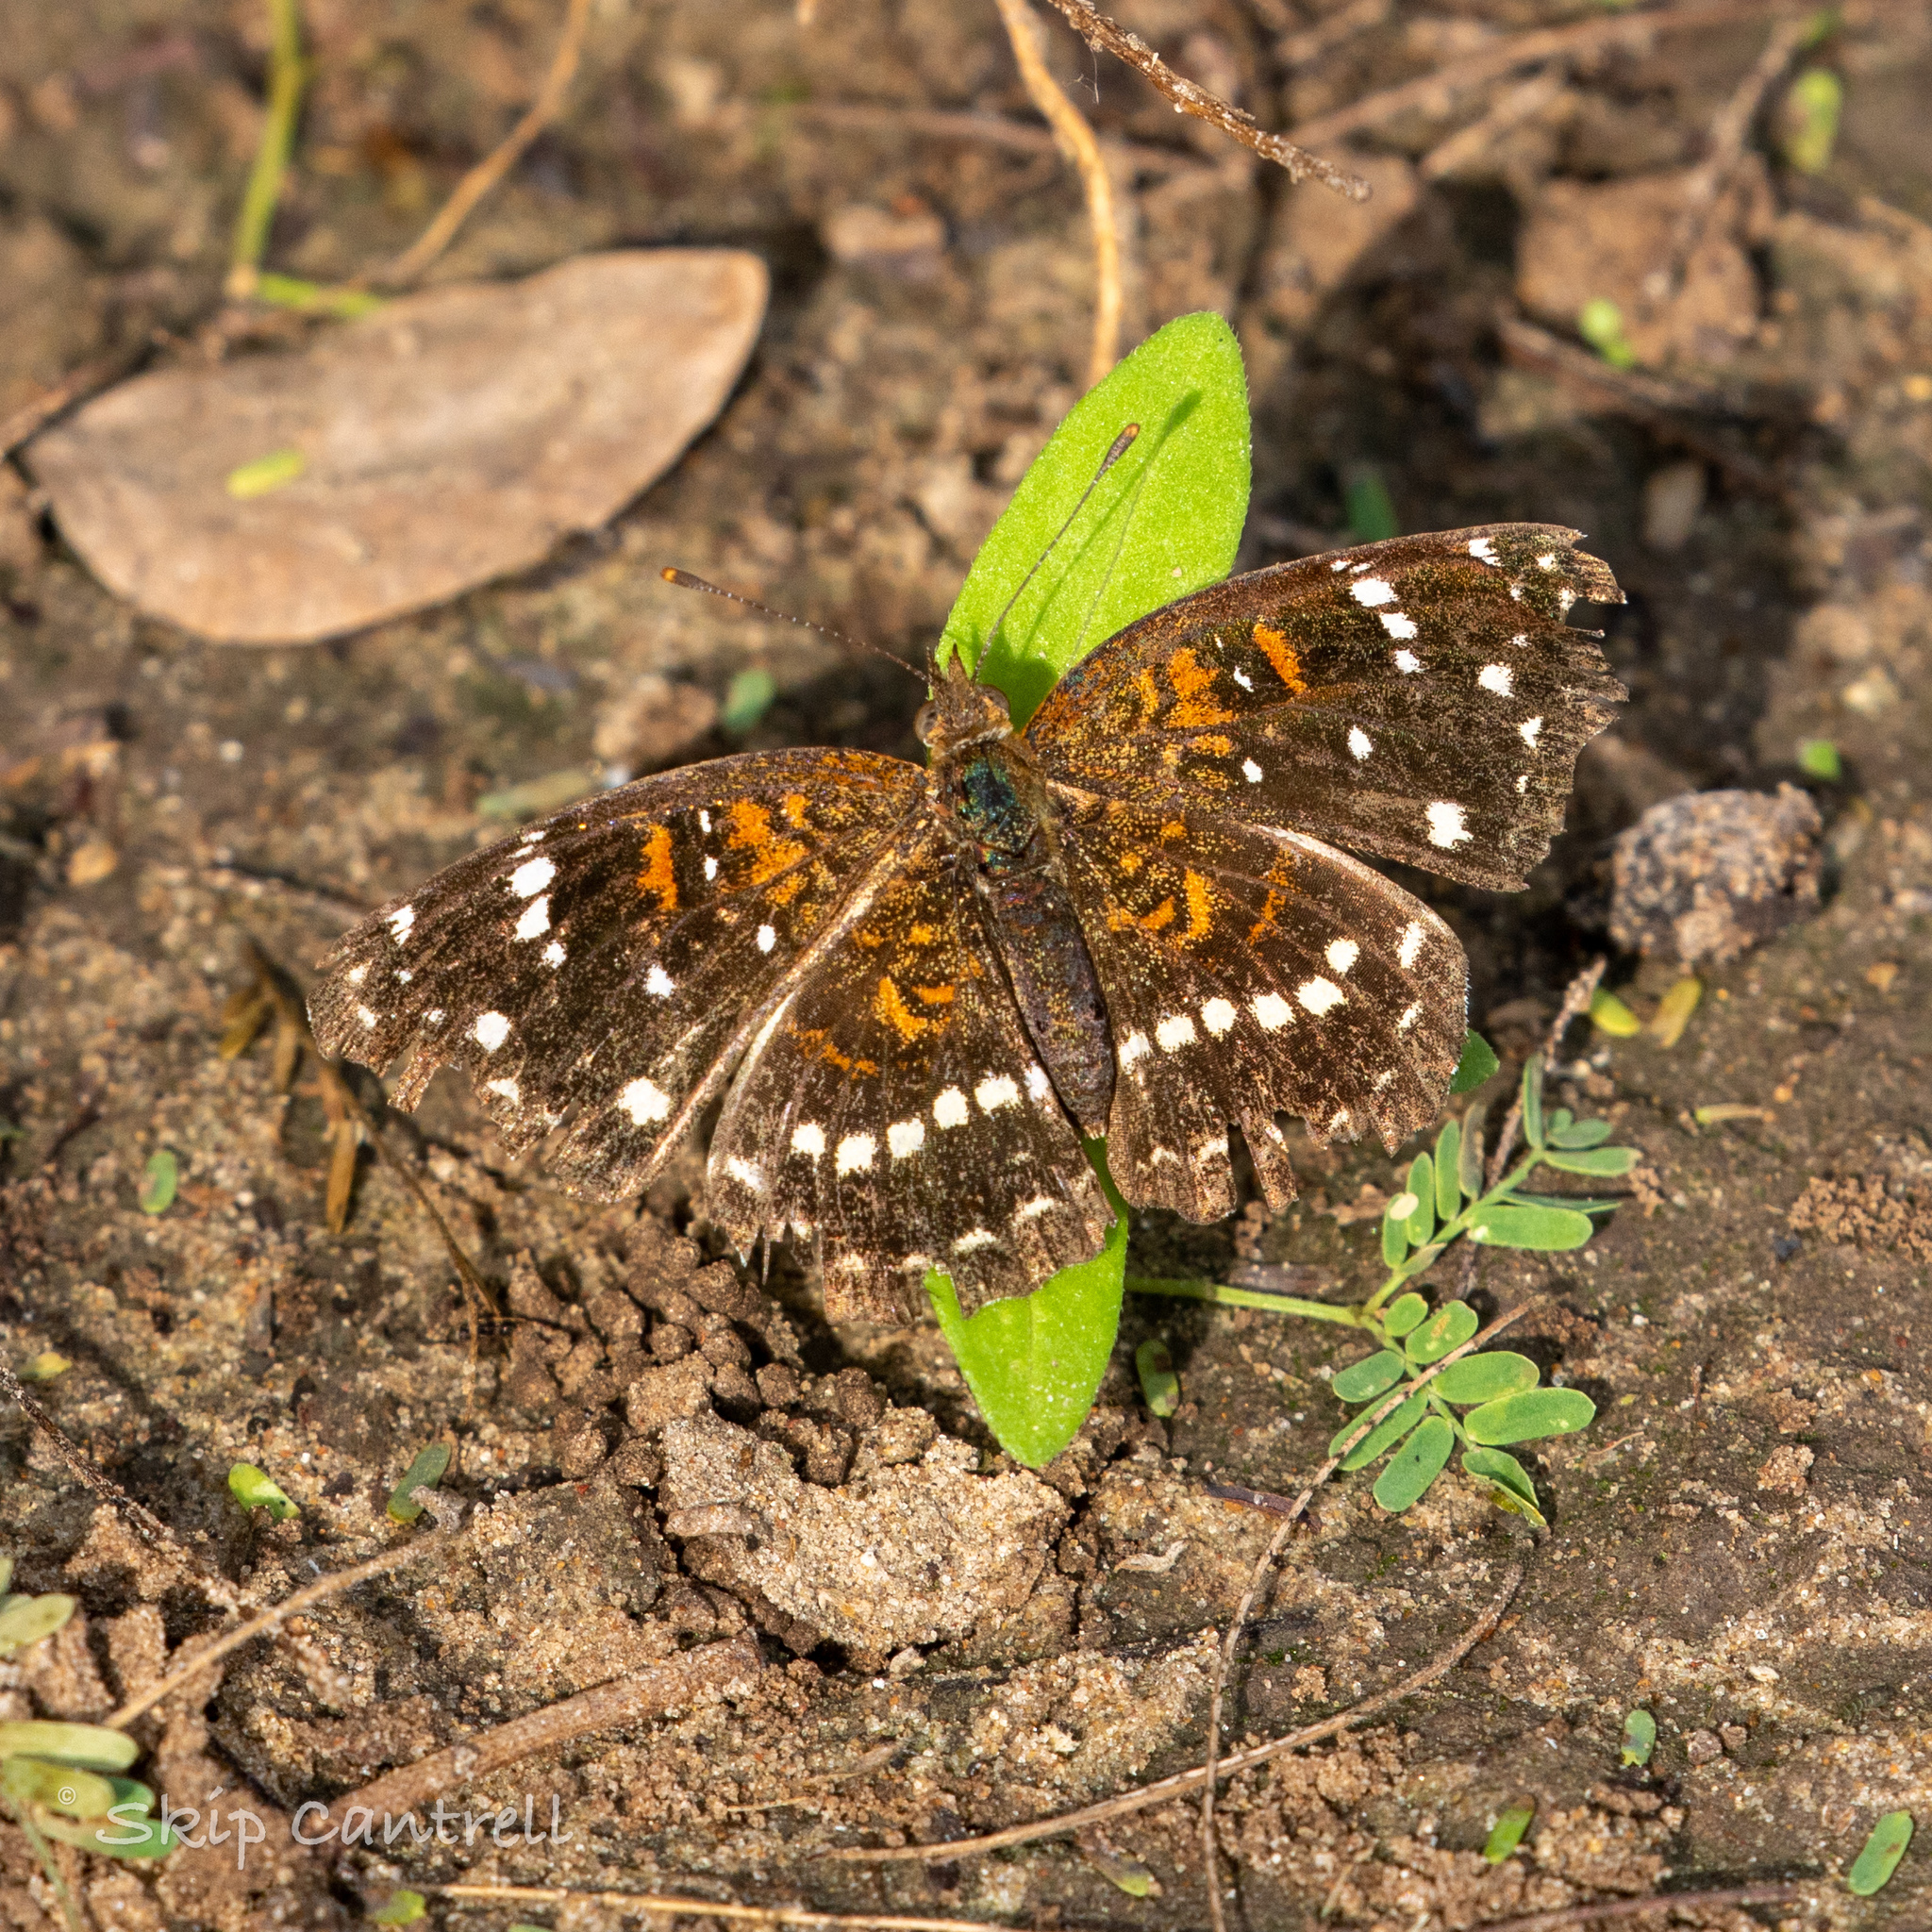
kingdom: Animalia
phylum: Arthropoda
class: Insecta
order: Lepidoptera
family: Nymphalidae
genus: Anthanassa
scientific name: Anthanassa texana
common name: Texan crescent
